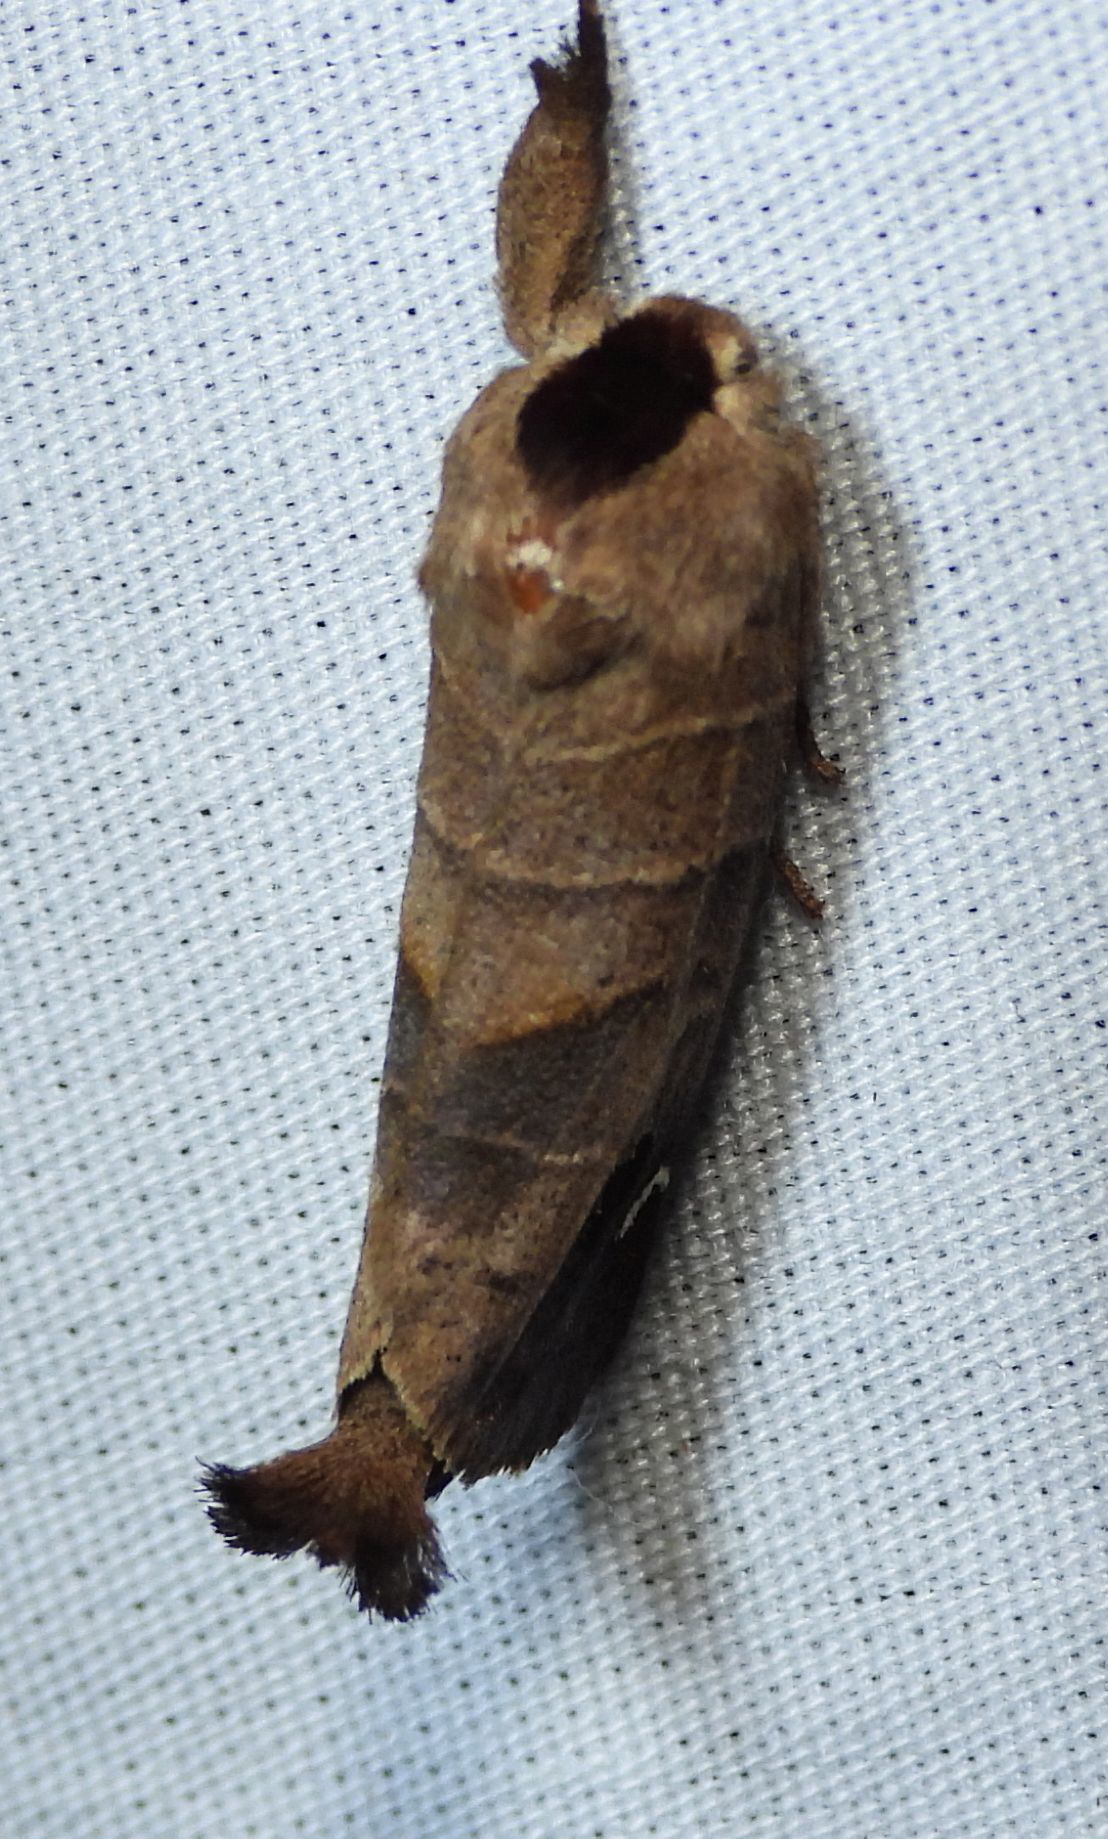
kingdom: Animalia
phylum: Arthropoda
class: Insecta
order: Lepidoptera
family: Notodontidae
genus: Clostera
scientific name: Clostera albosigma
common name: Sigmoid prominent
